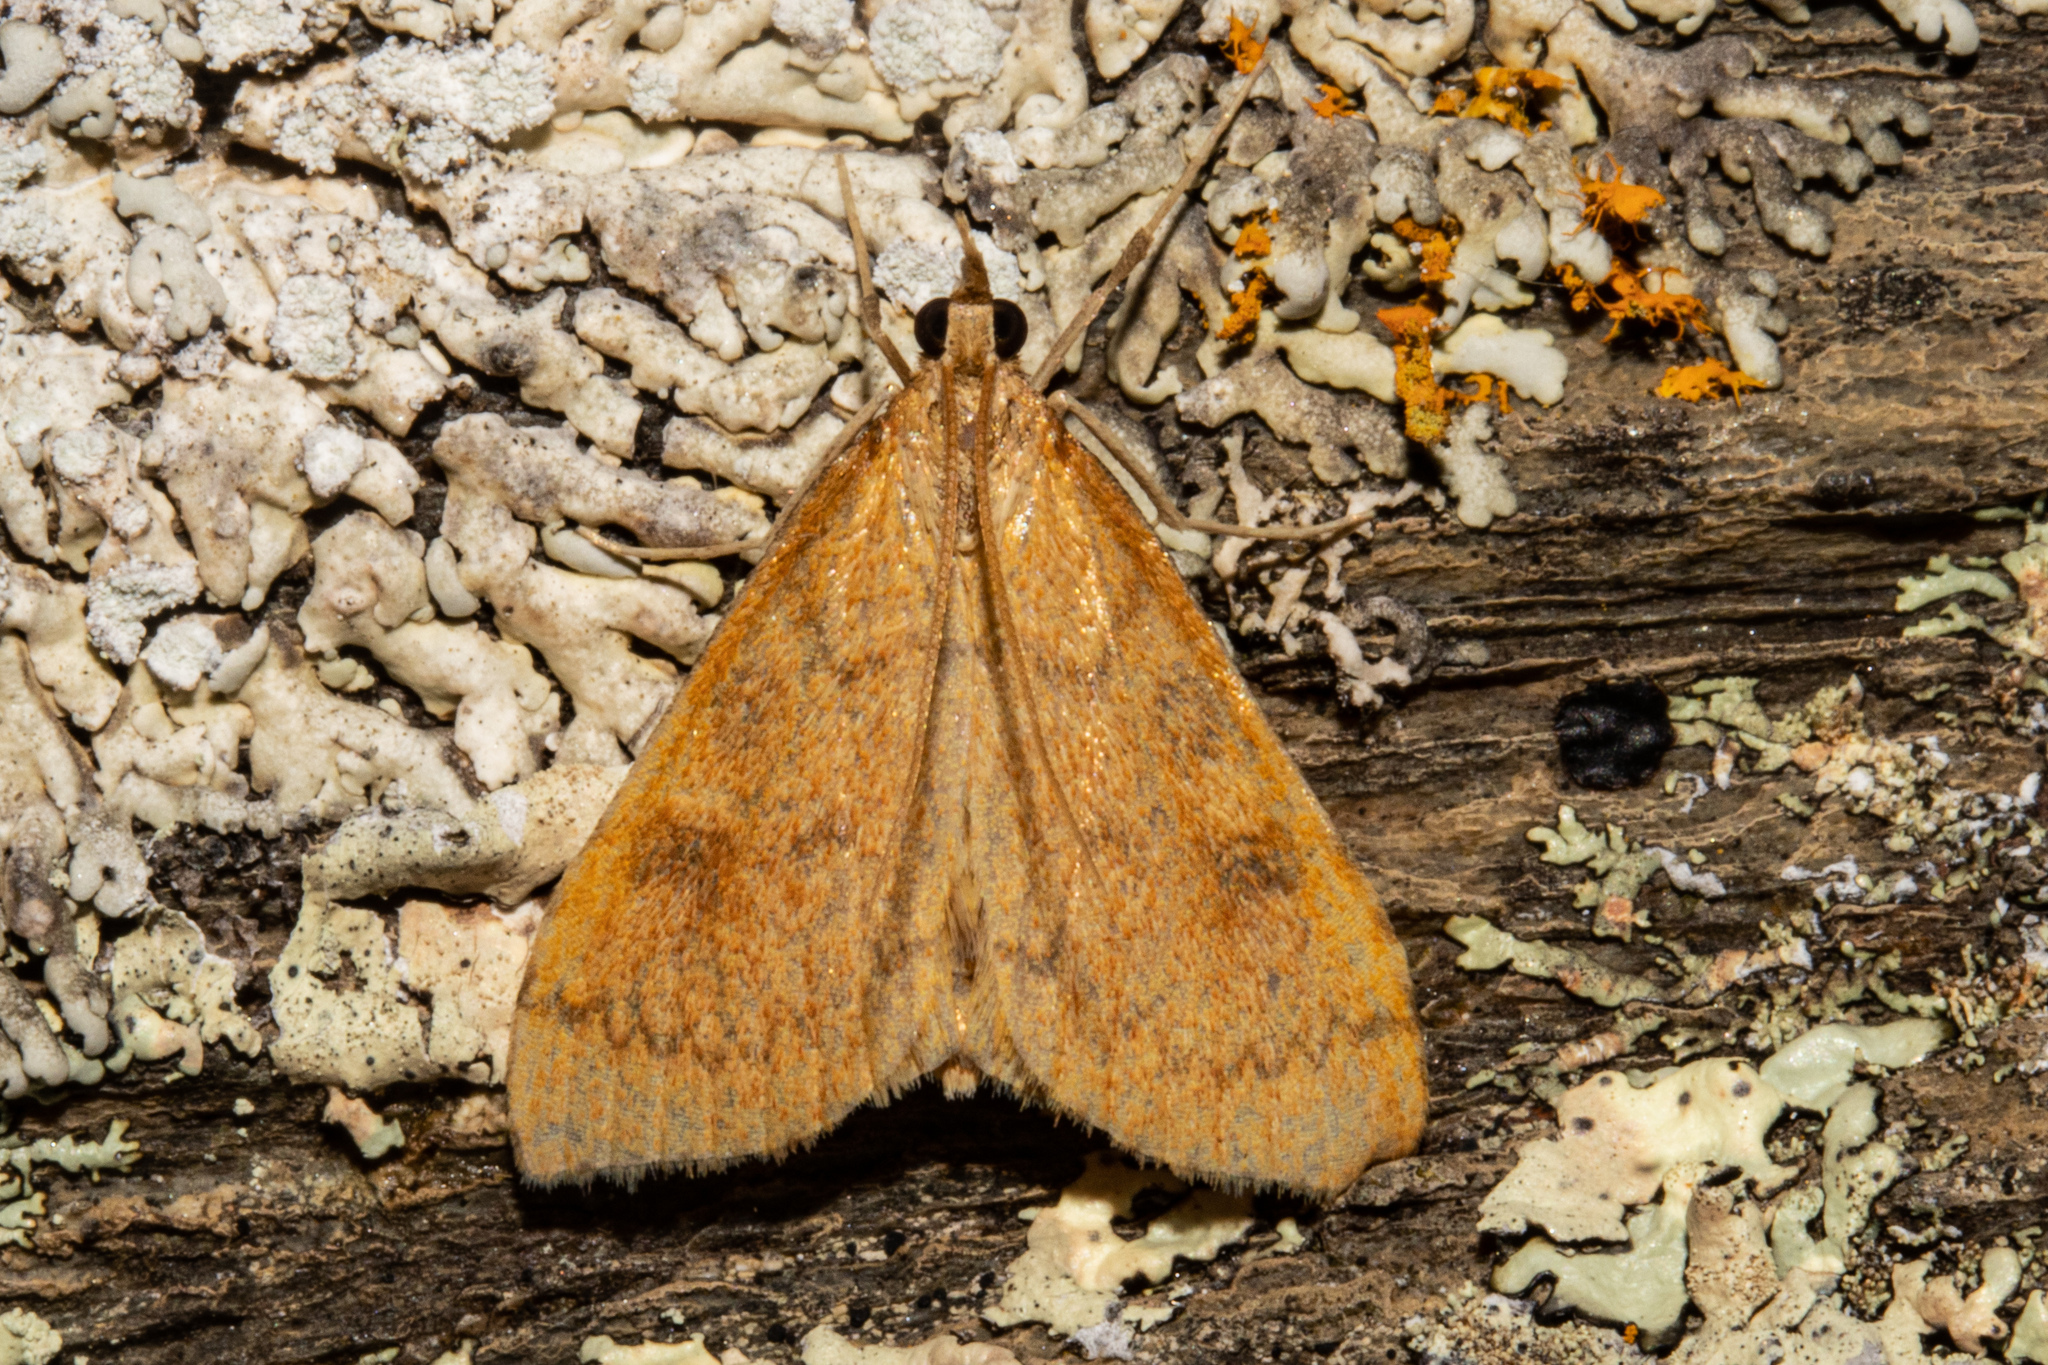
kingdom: Animalia
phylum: Arthropoda
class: Insecta
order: Lepidoptera
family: Crambidae
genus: Udea
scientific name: Udea Mnesictena flavidalis
